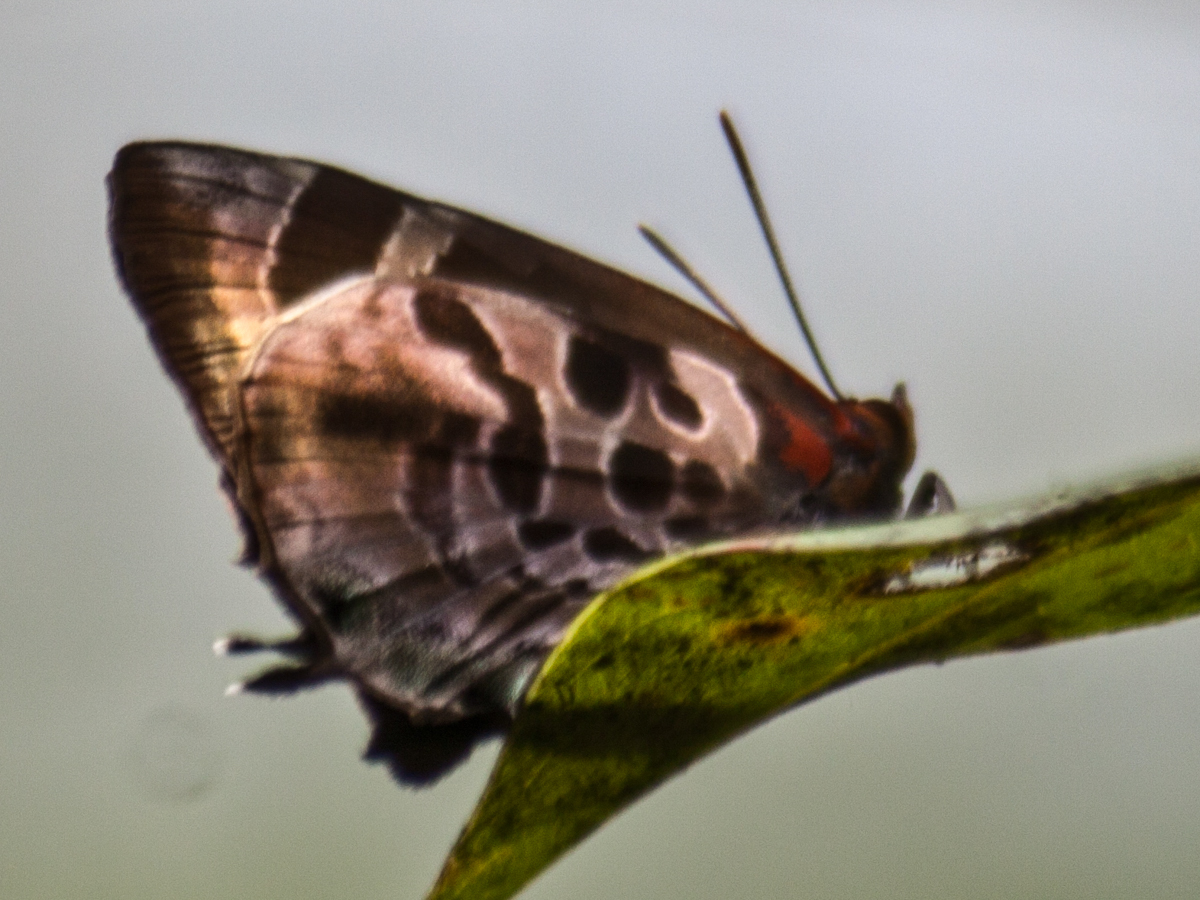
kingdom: Animalia
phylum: Arthropoda
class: Insecta
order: Lepidoptera
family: Lycaenidae
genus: Flos
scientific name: Flos
